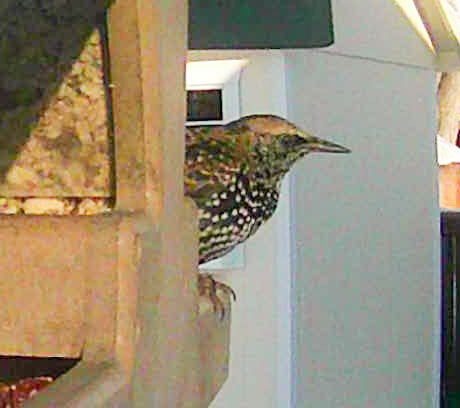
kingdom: Animalia
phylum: Chordata
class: Aves
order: Passeriformes
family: Sturnidae
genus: Sturnus
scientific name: Sturnus vulgaris
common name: Common starling
